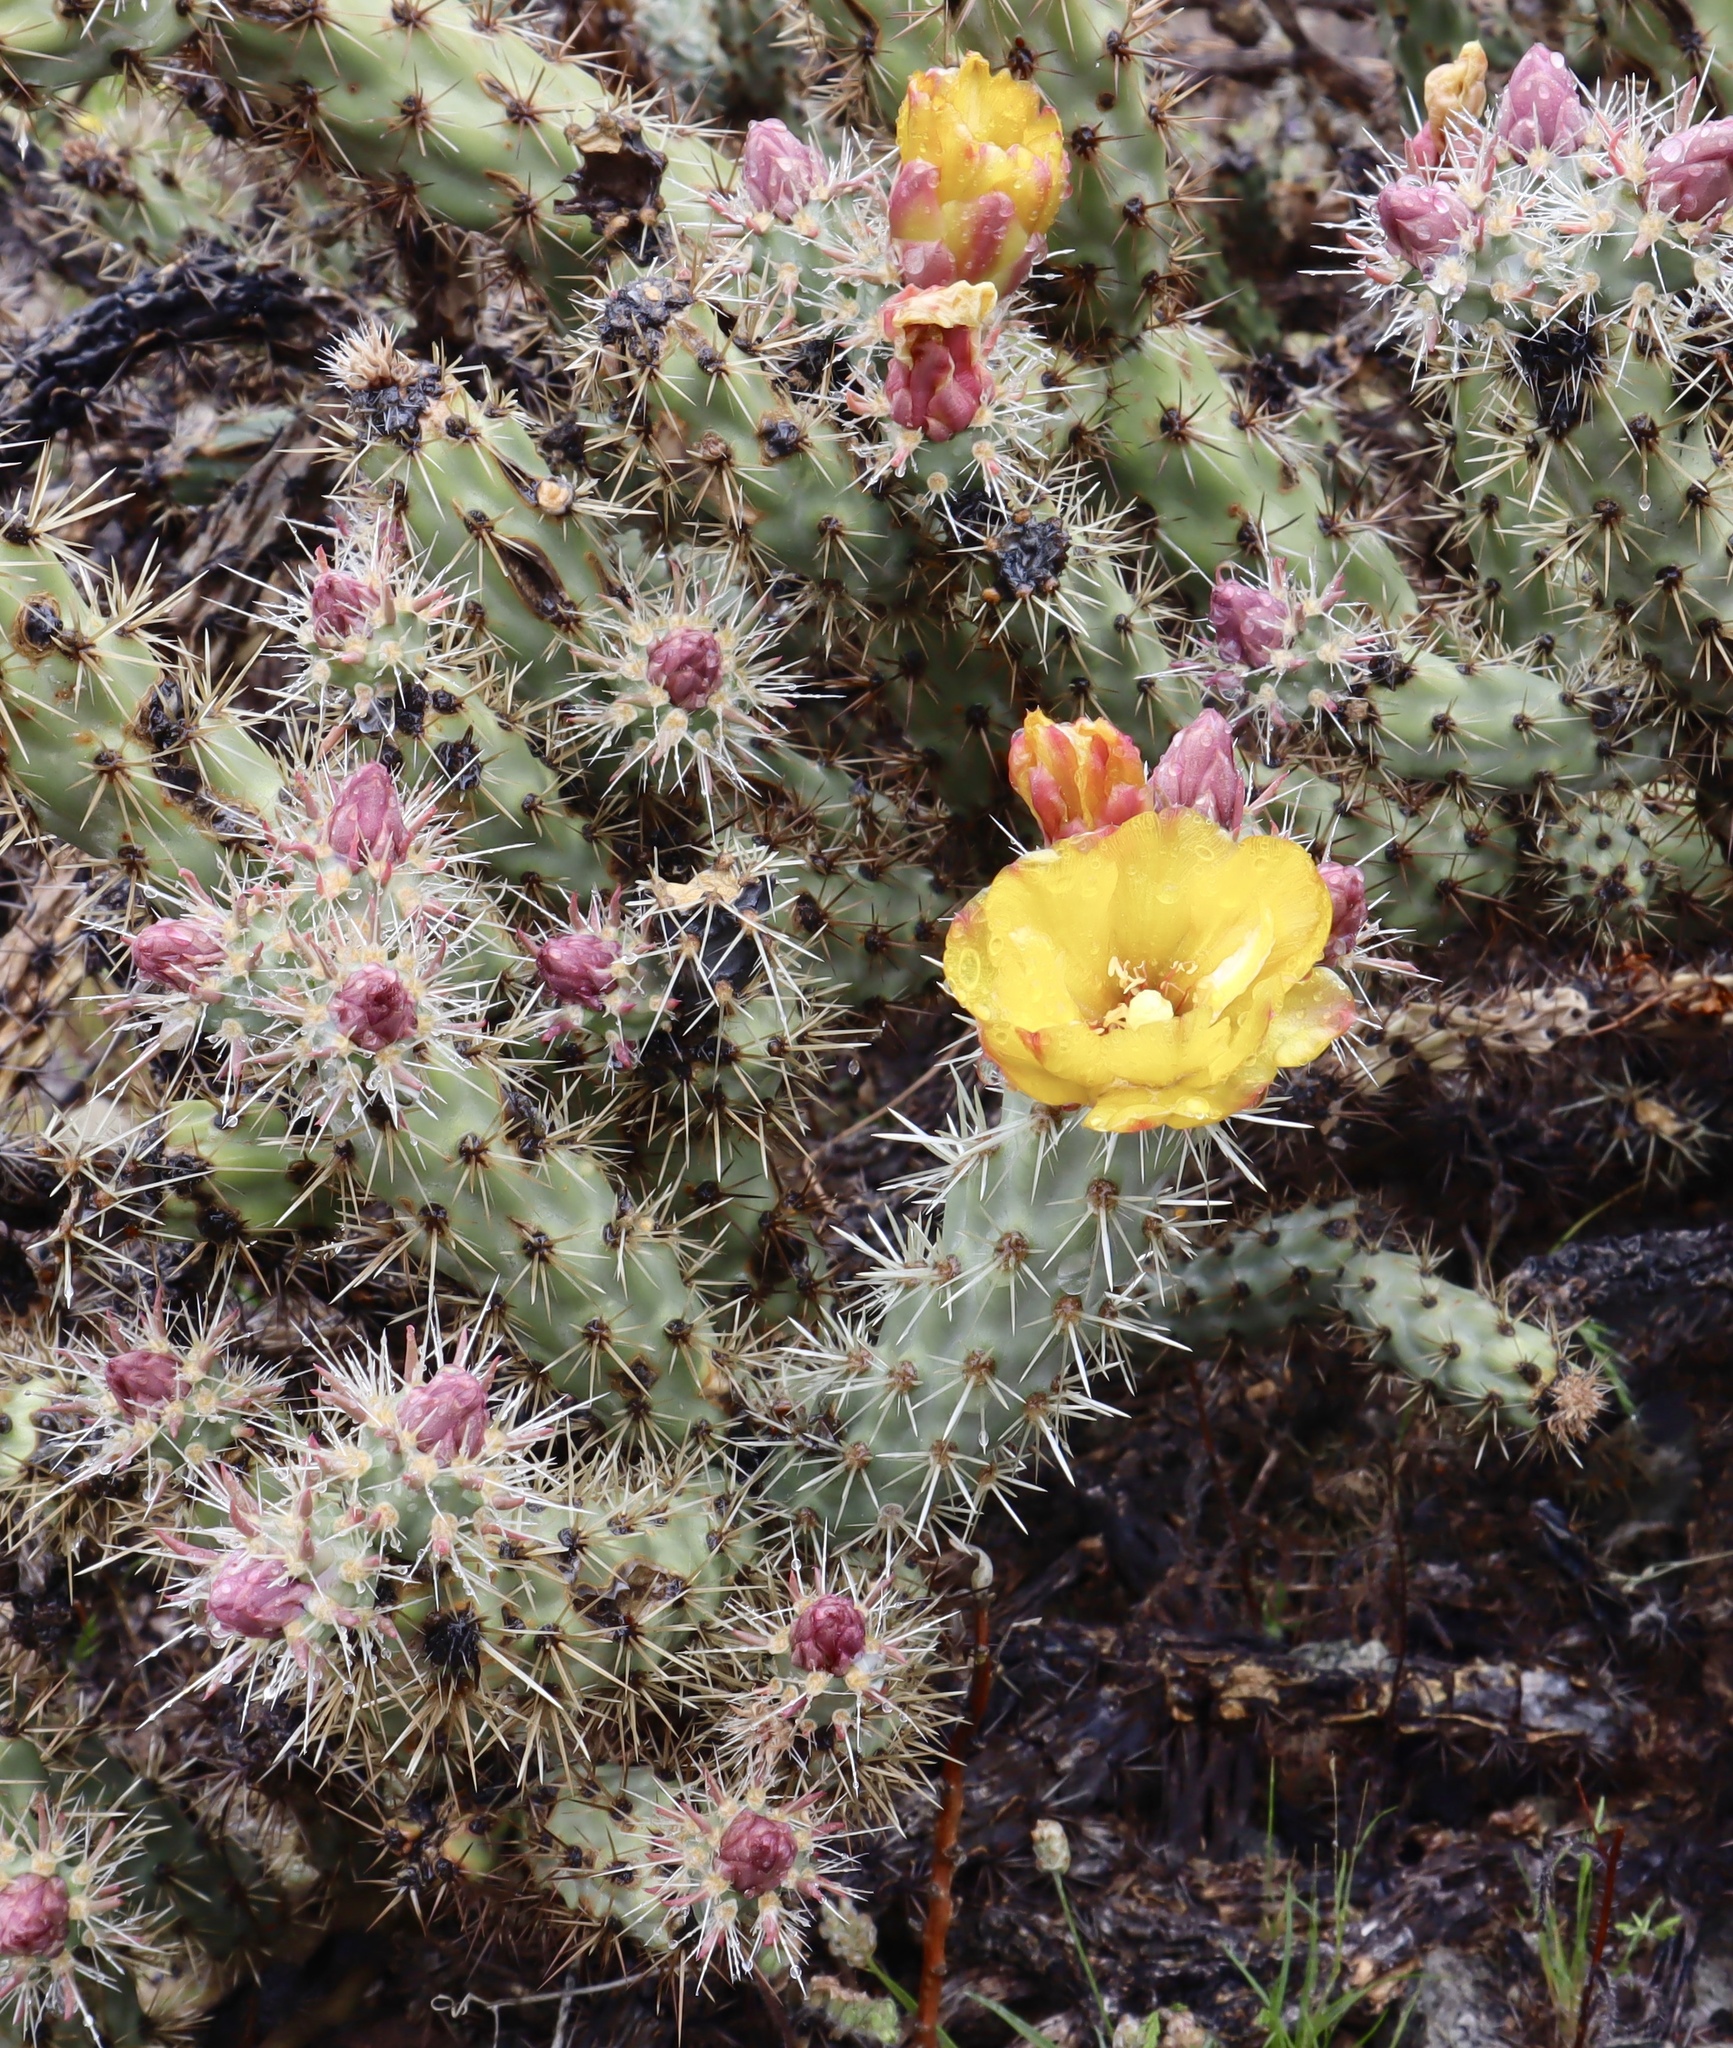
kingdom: Plantae
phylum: Tracheophyta
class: Magnoliopsida
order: Caryophyllales
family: Cactaceae
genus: Cylindropuntia
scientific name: Cylindropuntia acanthocarpa
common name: Buckhorn cholla
